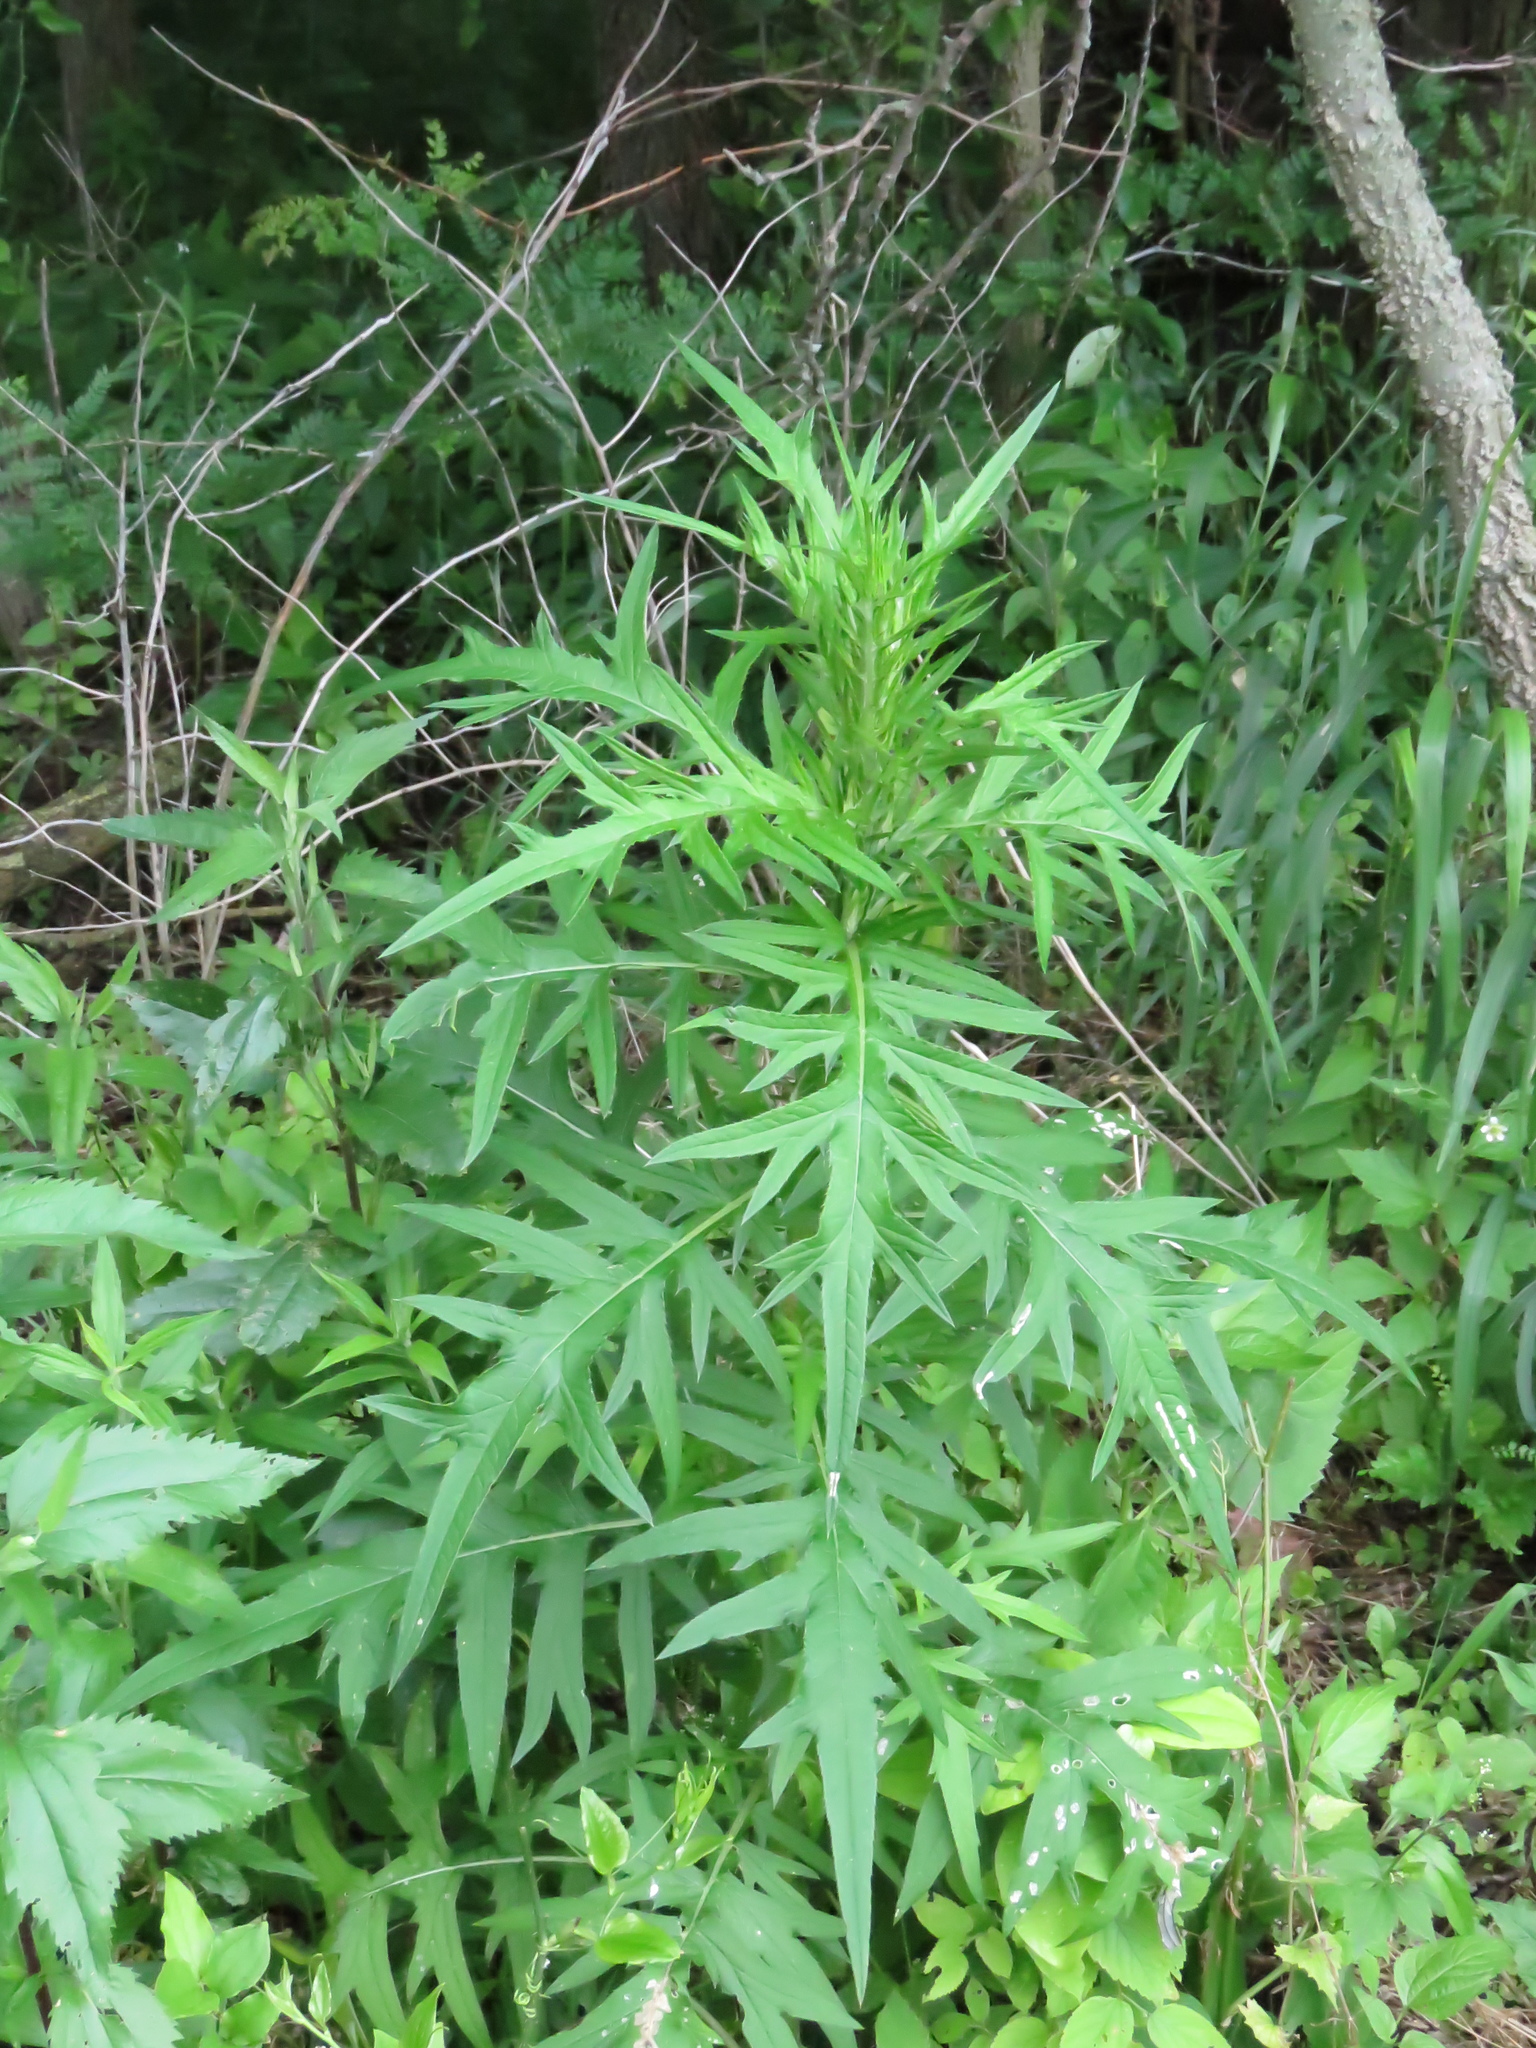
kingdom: Plantae
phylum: Tracheophyta
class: Magnoliopsida
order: Asterales
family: Asteraceae
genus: Cirsium
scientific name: Cirsium discolor
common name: Field thistle
